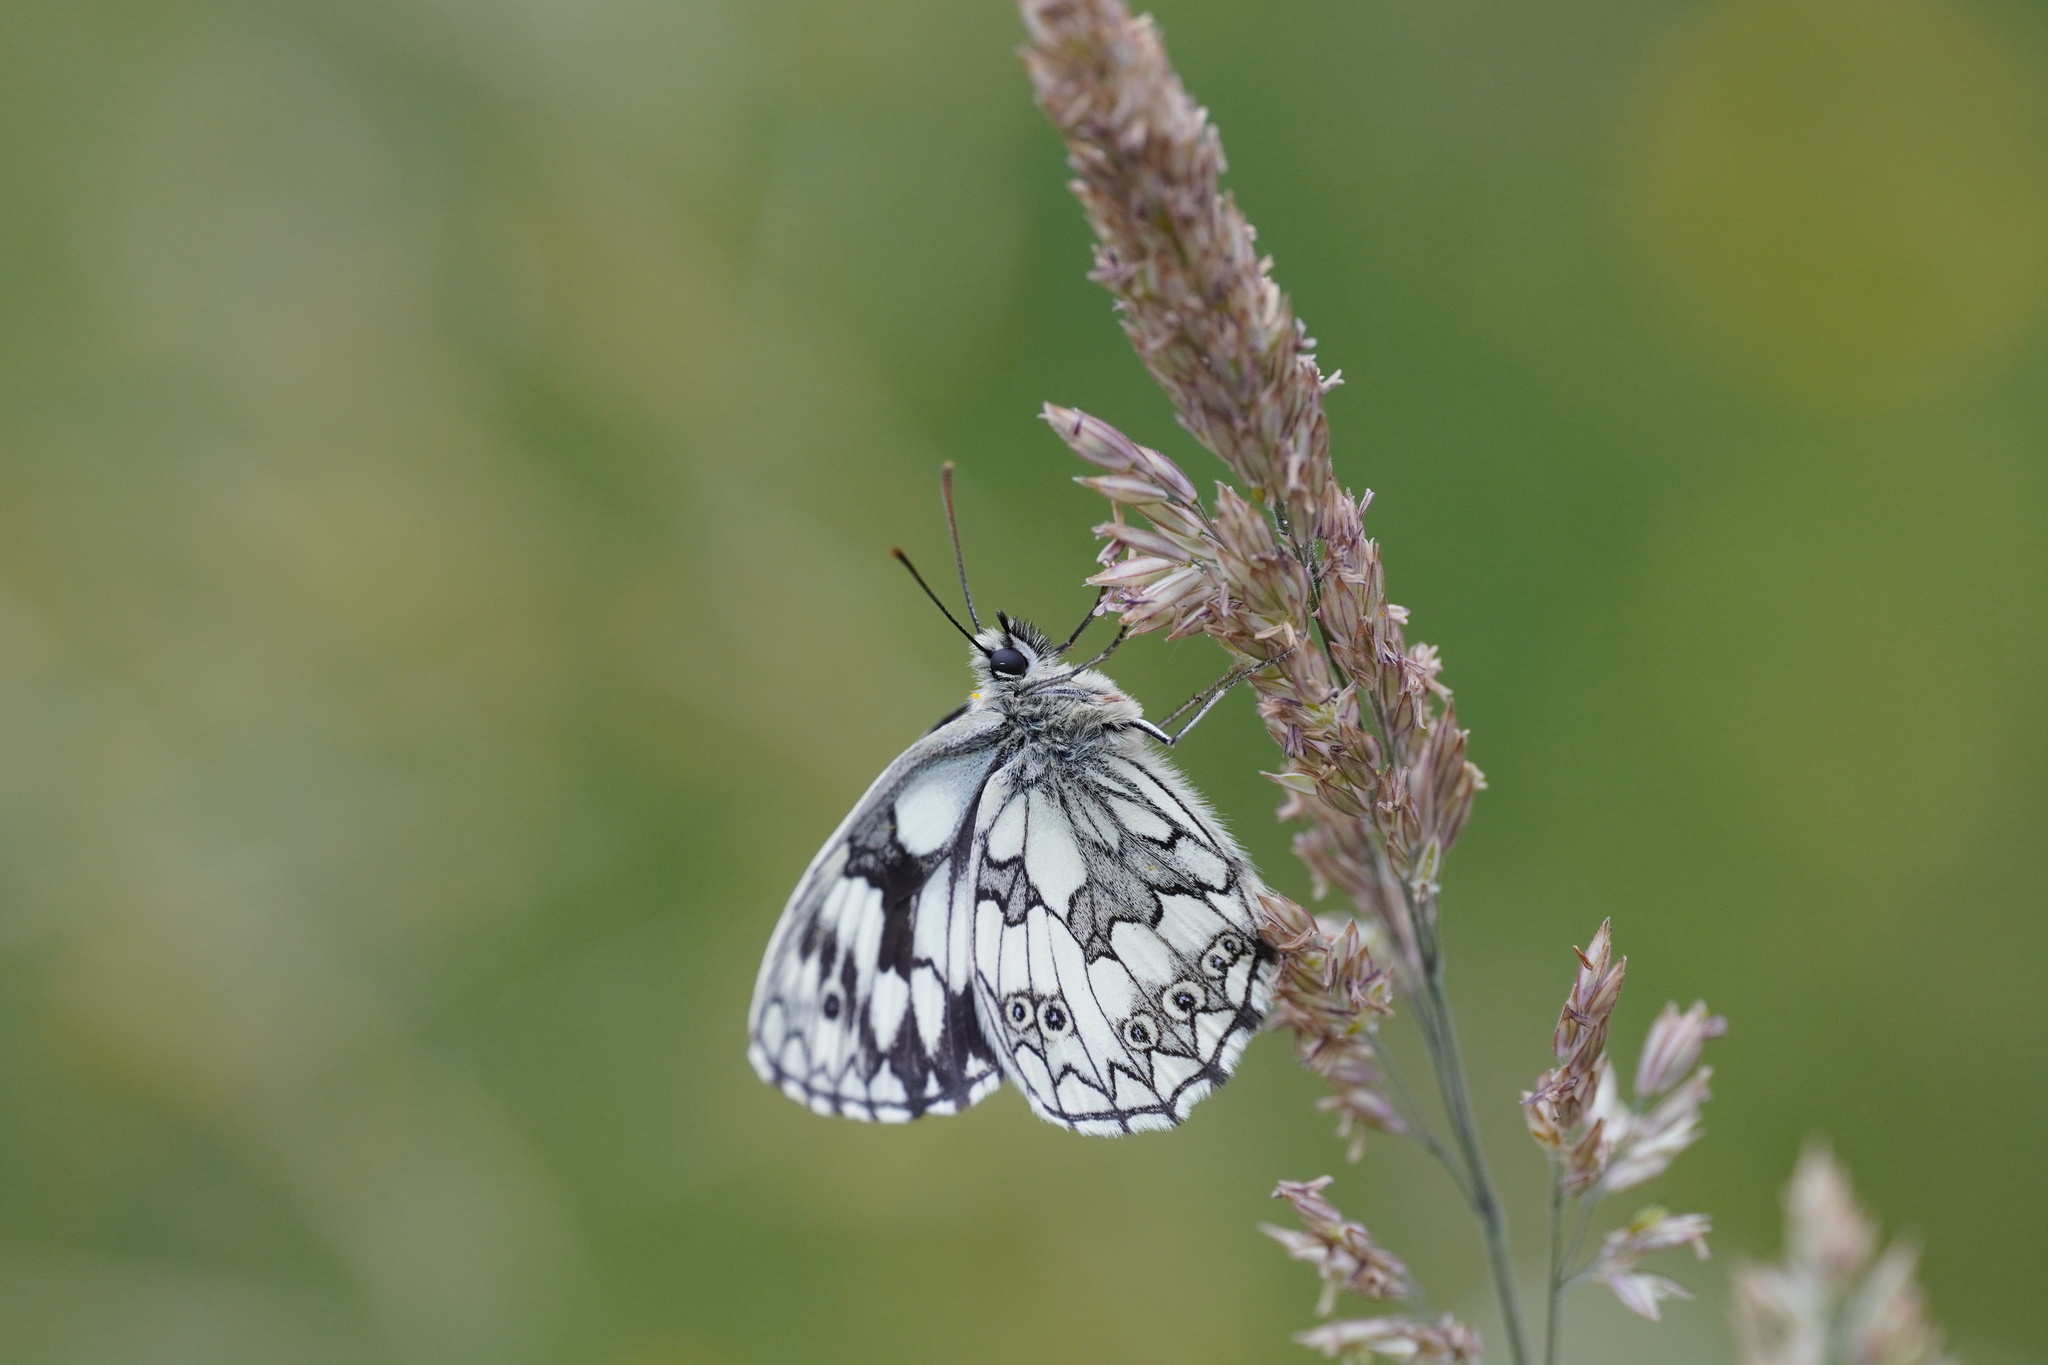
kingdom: Animalia
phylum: Arthropoda
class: Insecta
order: Lepidoptera
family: Nymphalidae
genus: Melanargia
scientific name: Melanargia galathea
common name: Marbled white
